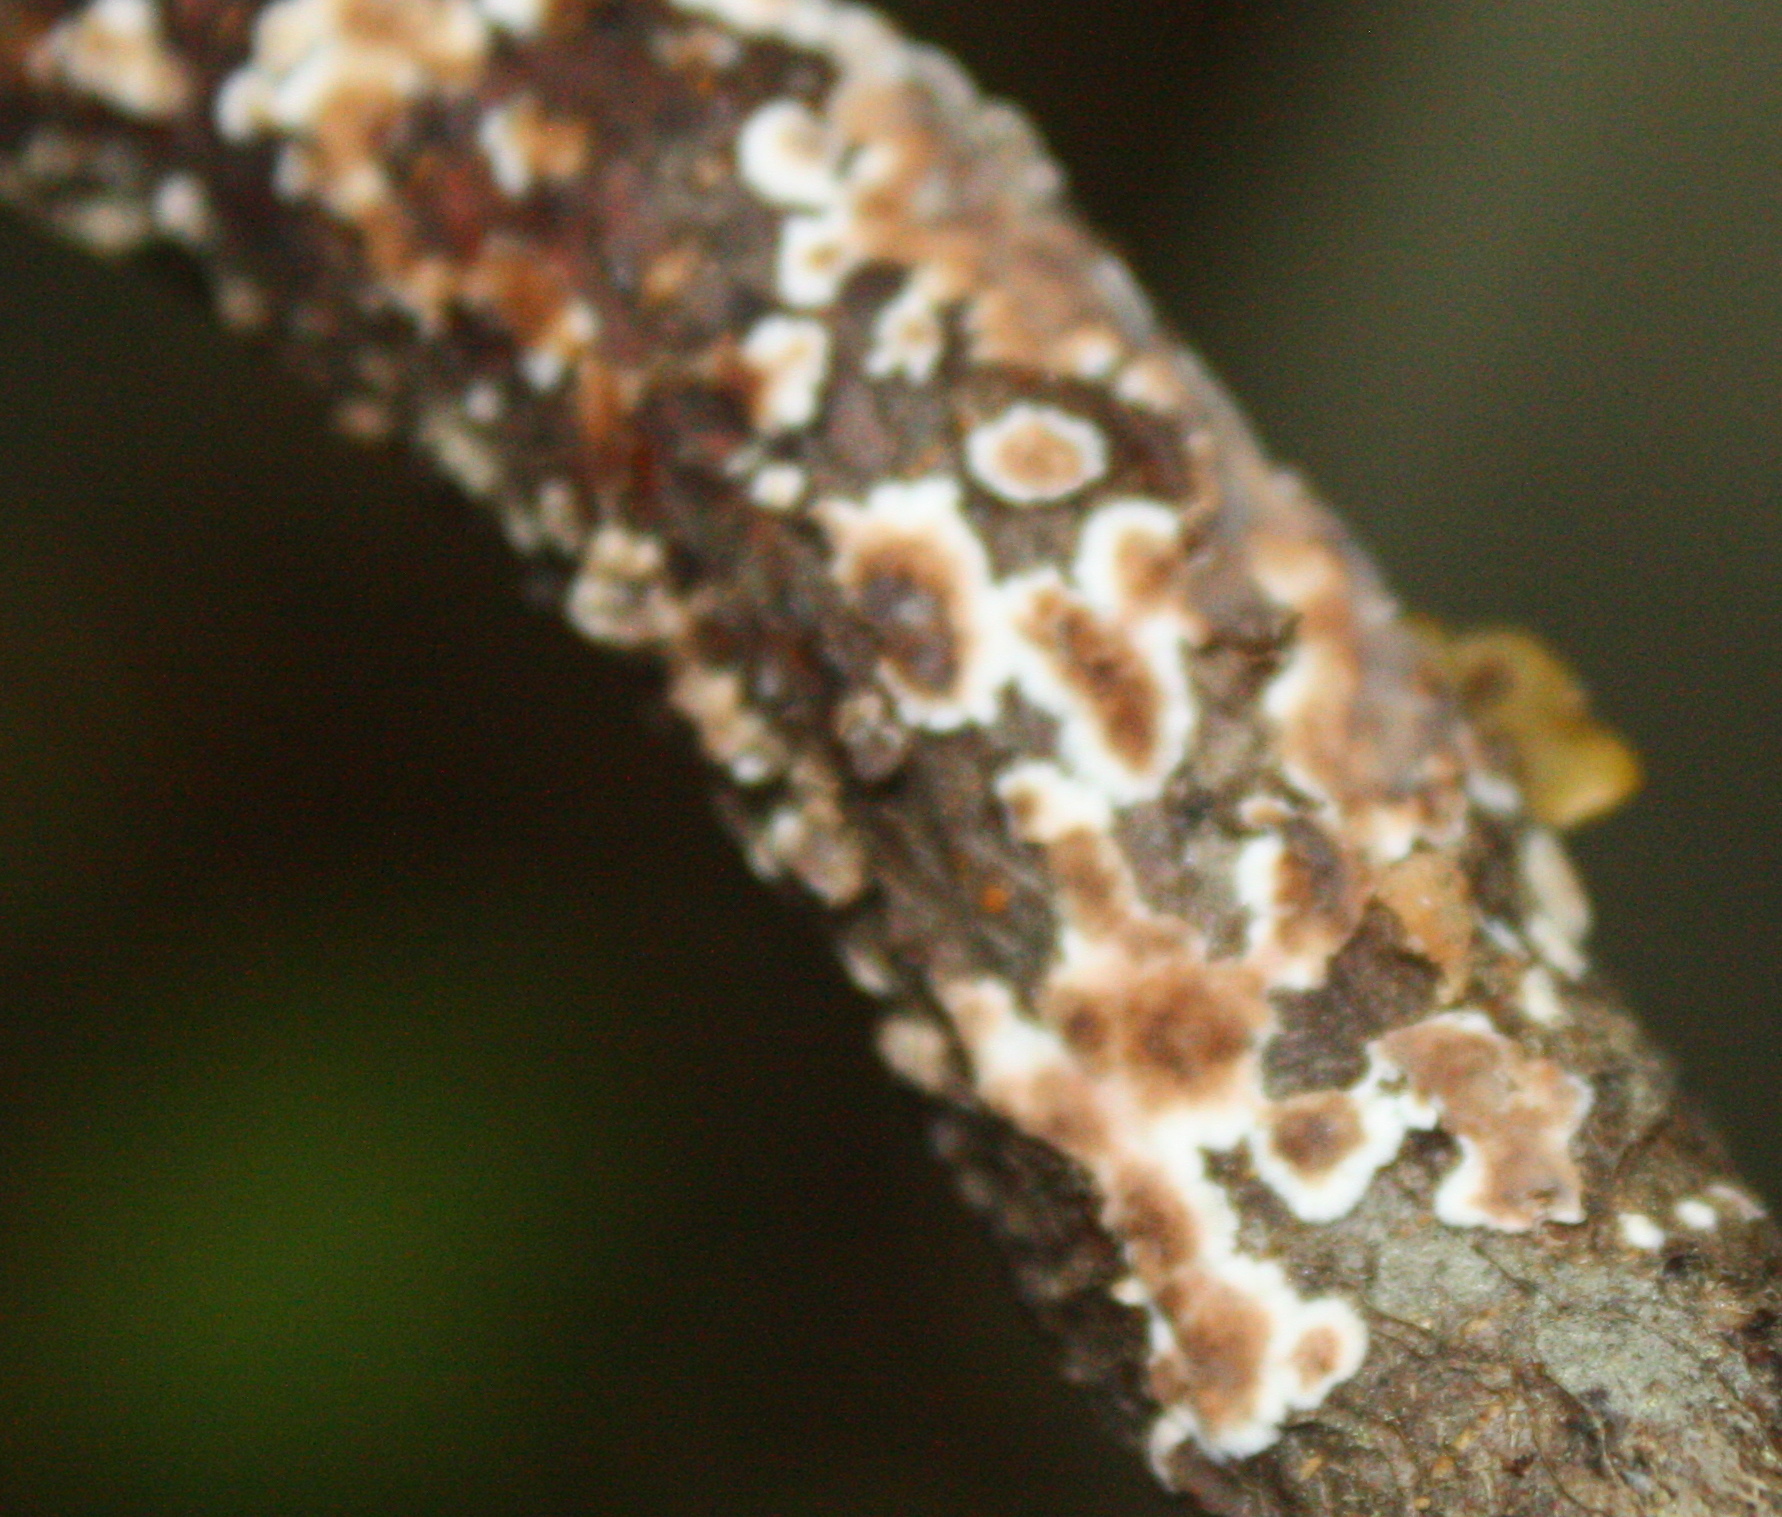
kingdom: Fungi
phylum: Basidiomycota
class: Agaricomycetes
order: Russulales
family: Peniophoraceae
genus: Peniophora
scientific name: Peniophora albobadia
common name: Giraffe spots
